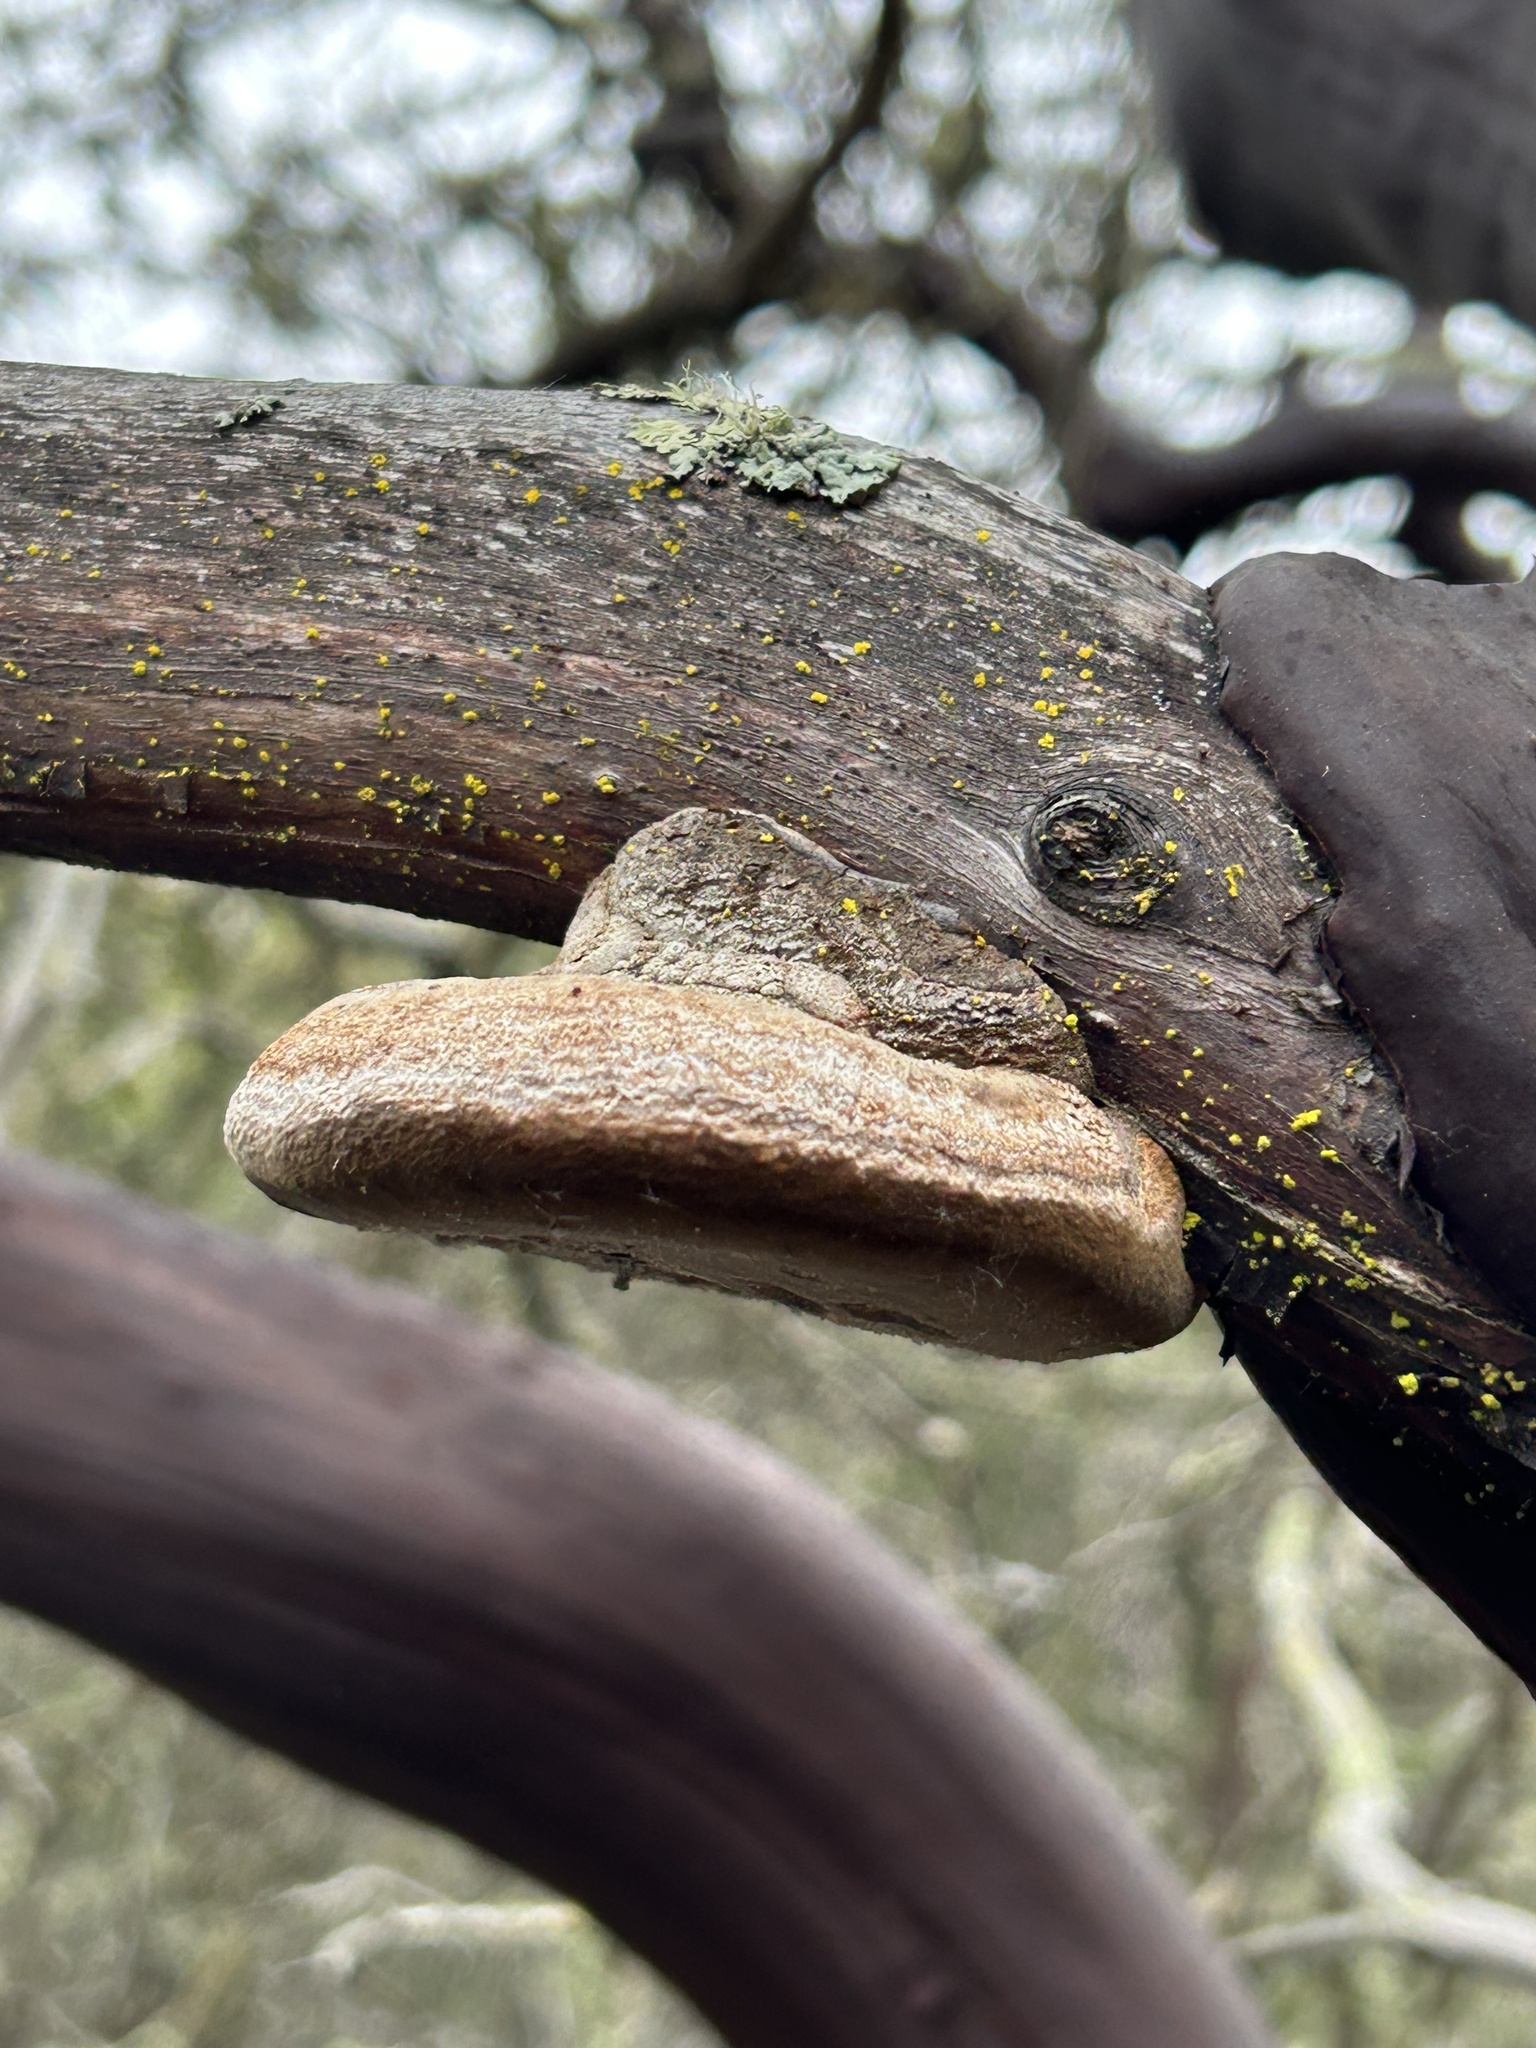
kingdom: Fungi
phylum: Basidiomycota
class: Agaricomycetes
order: Polyporales
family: Polyporaceae
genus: Fomes
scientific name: Fomes arctostaphyli
